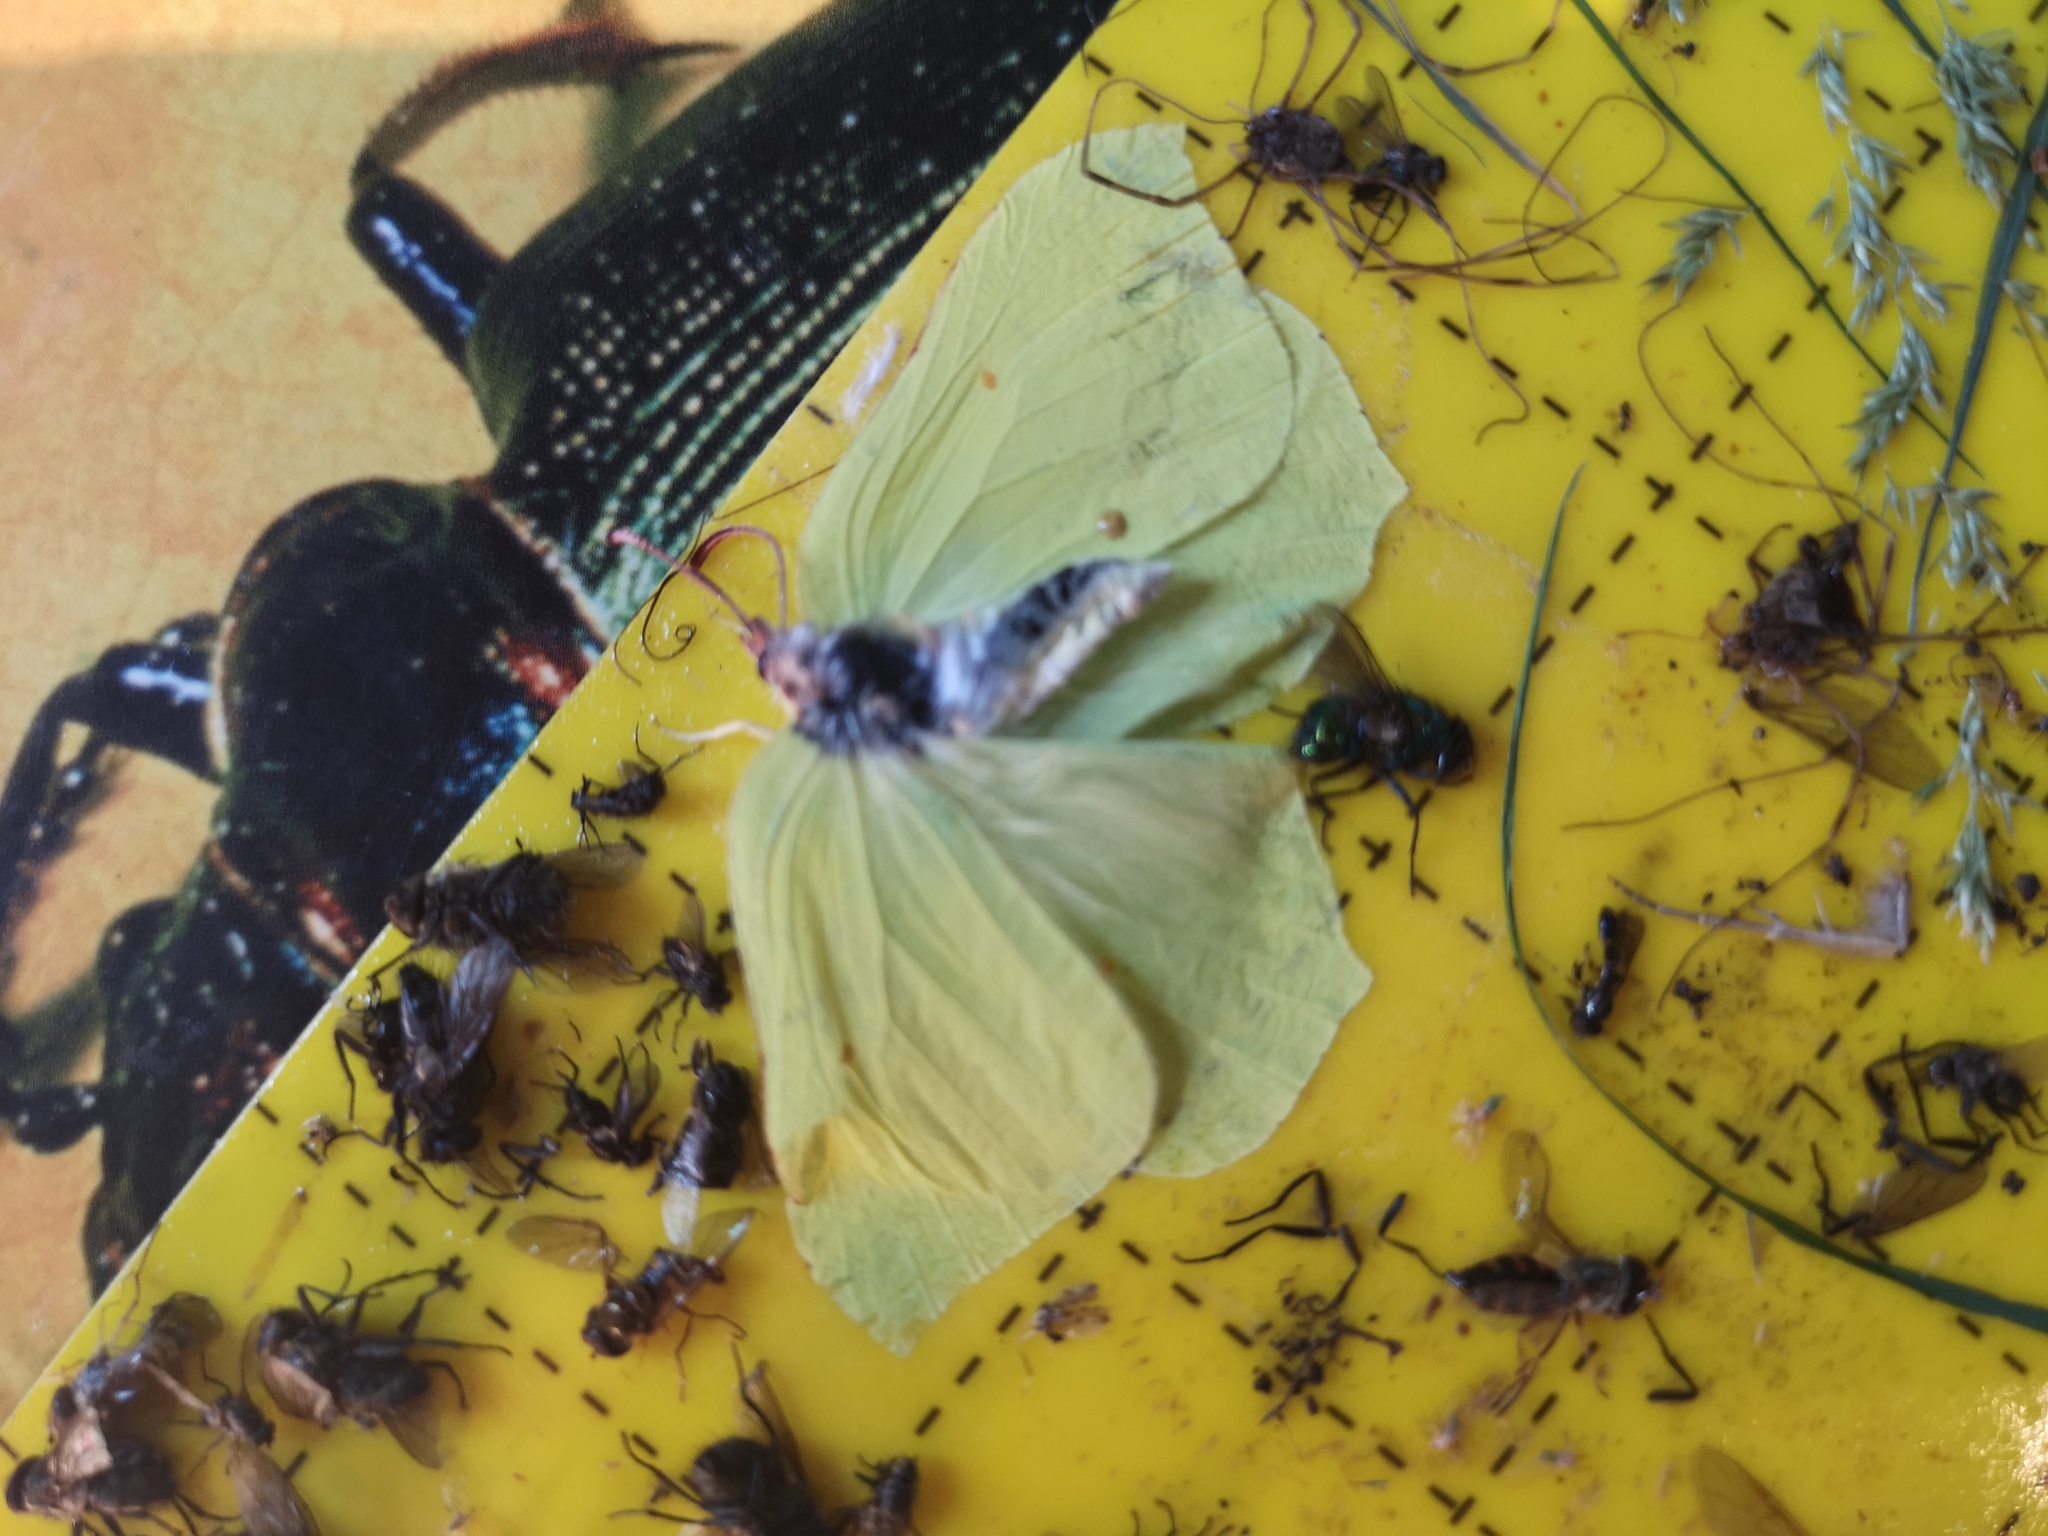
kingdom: Animalia
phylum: Arthropoda
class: Insecta
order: Lepidoptera
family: Pieridae
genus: Gonepteryx
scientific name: Gonepteryx rhamni
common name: Brimstone
